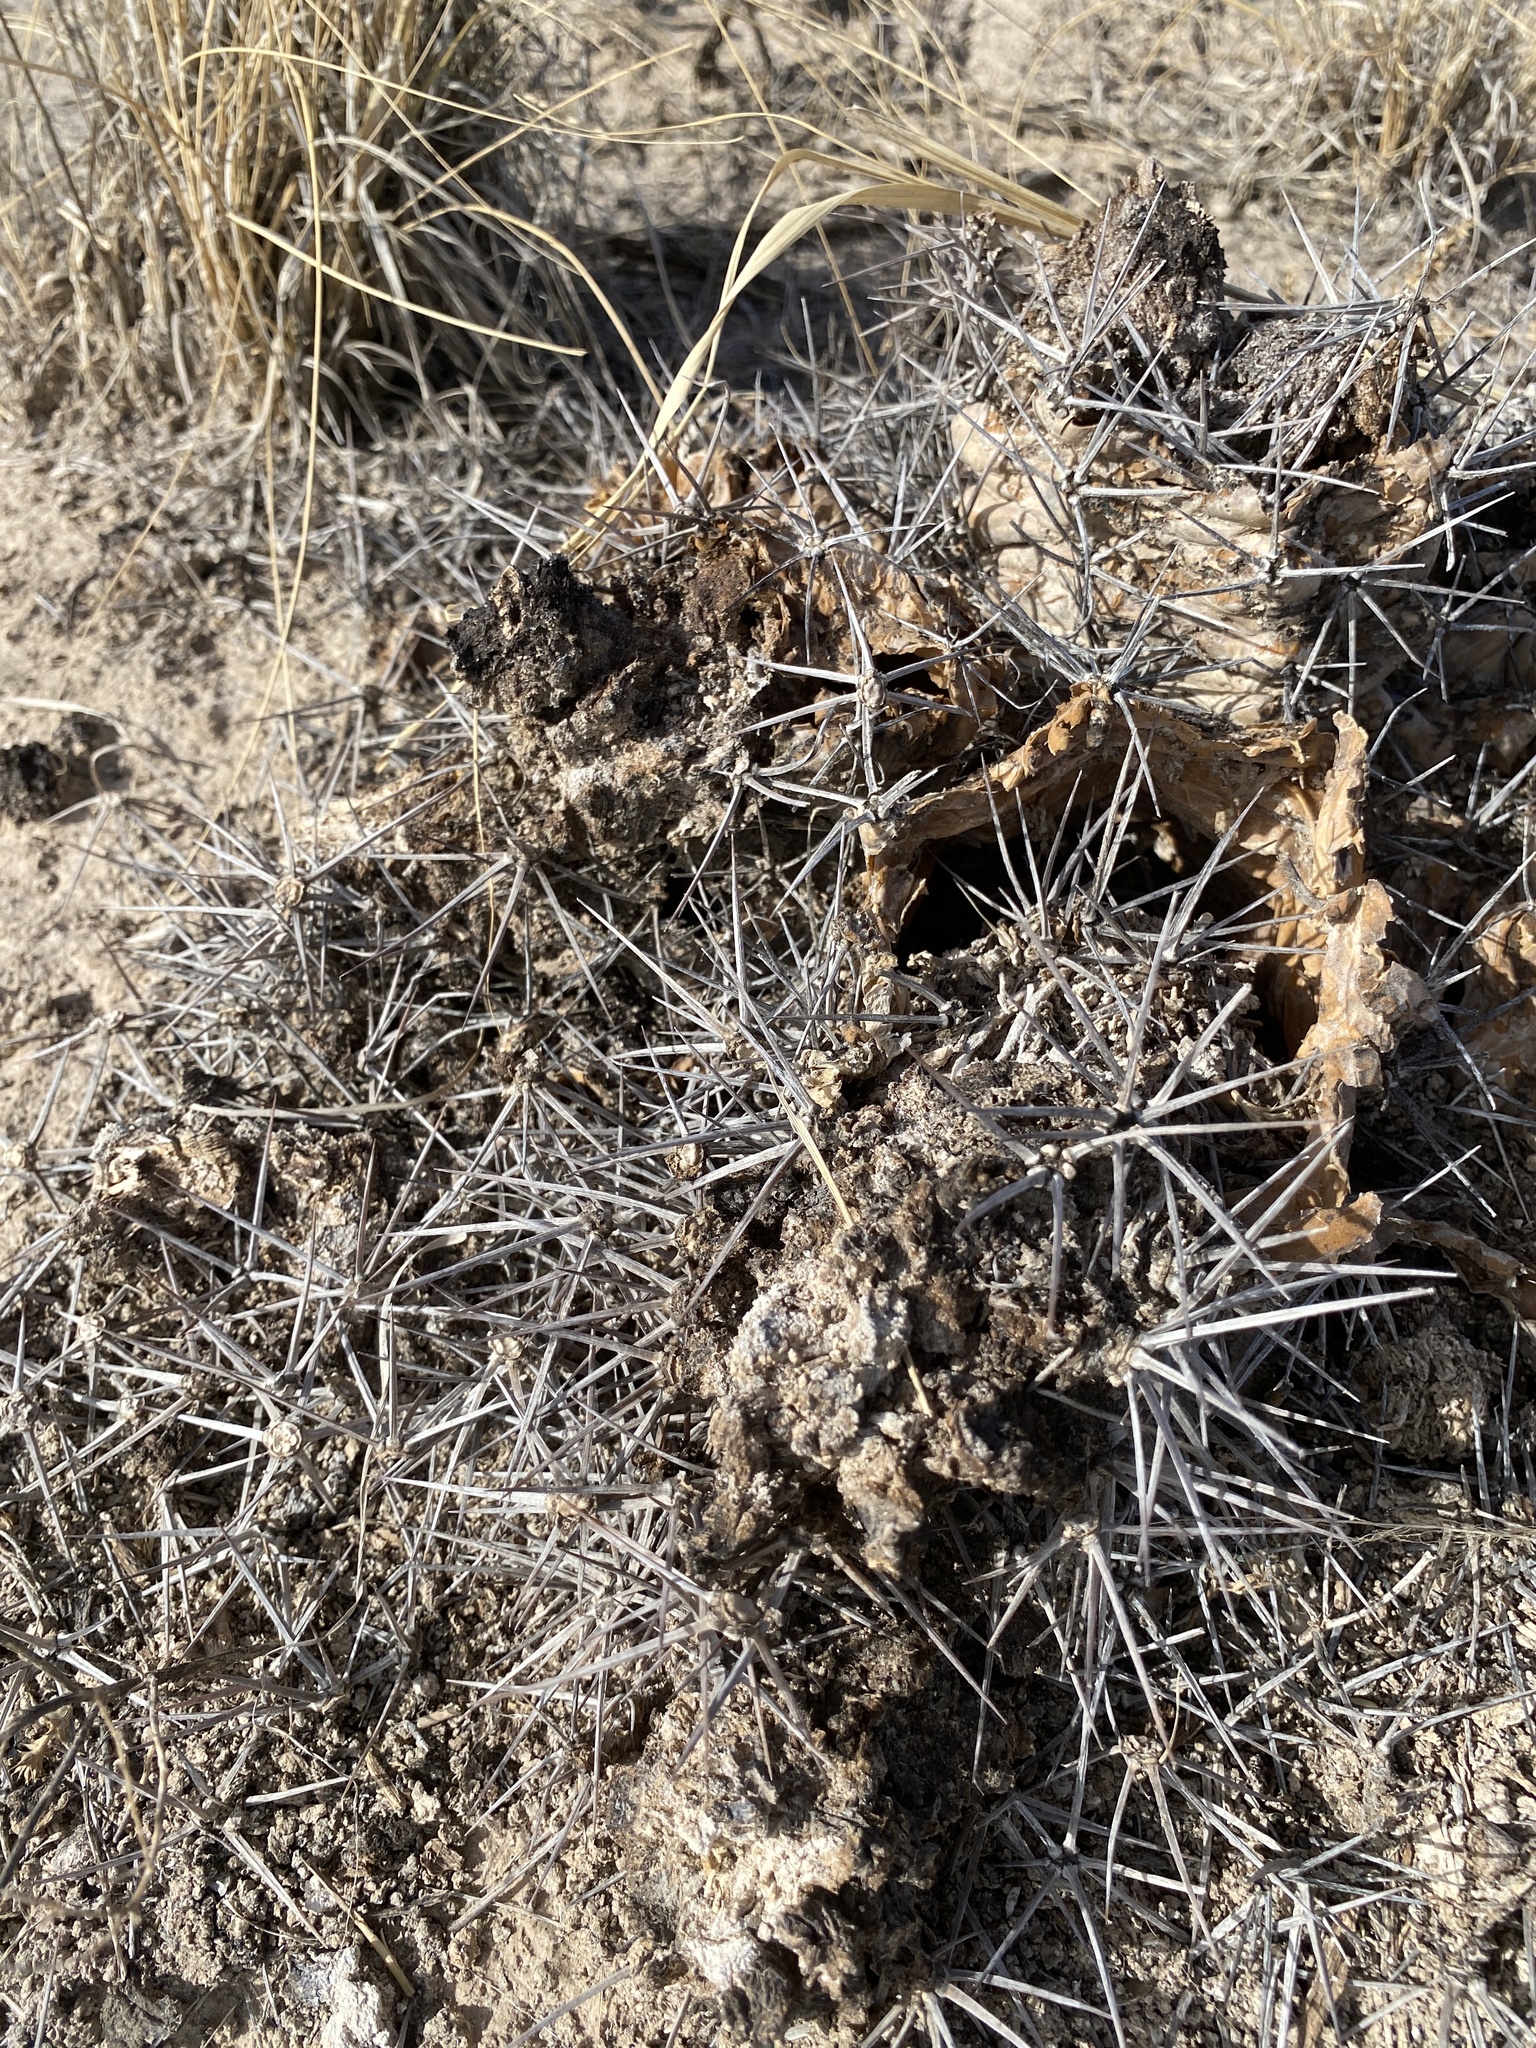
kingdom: Plantae
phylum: Tracheophyta
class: Magnoliopsida
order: Caryophyllales
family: Cactaceae
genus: Echinocereus
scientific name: Echinocereus triglochidiatus
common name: Claretcup hedgehog
